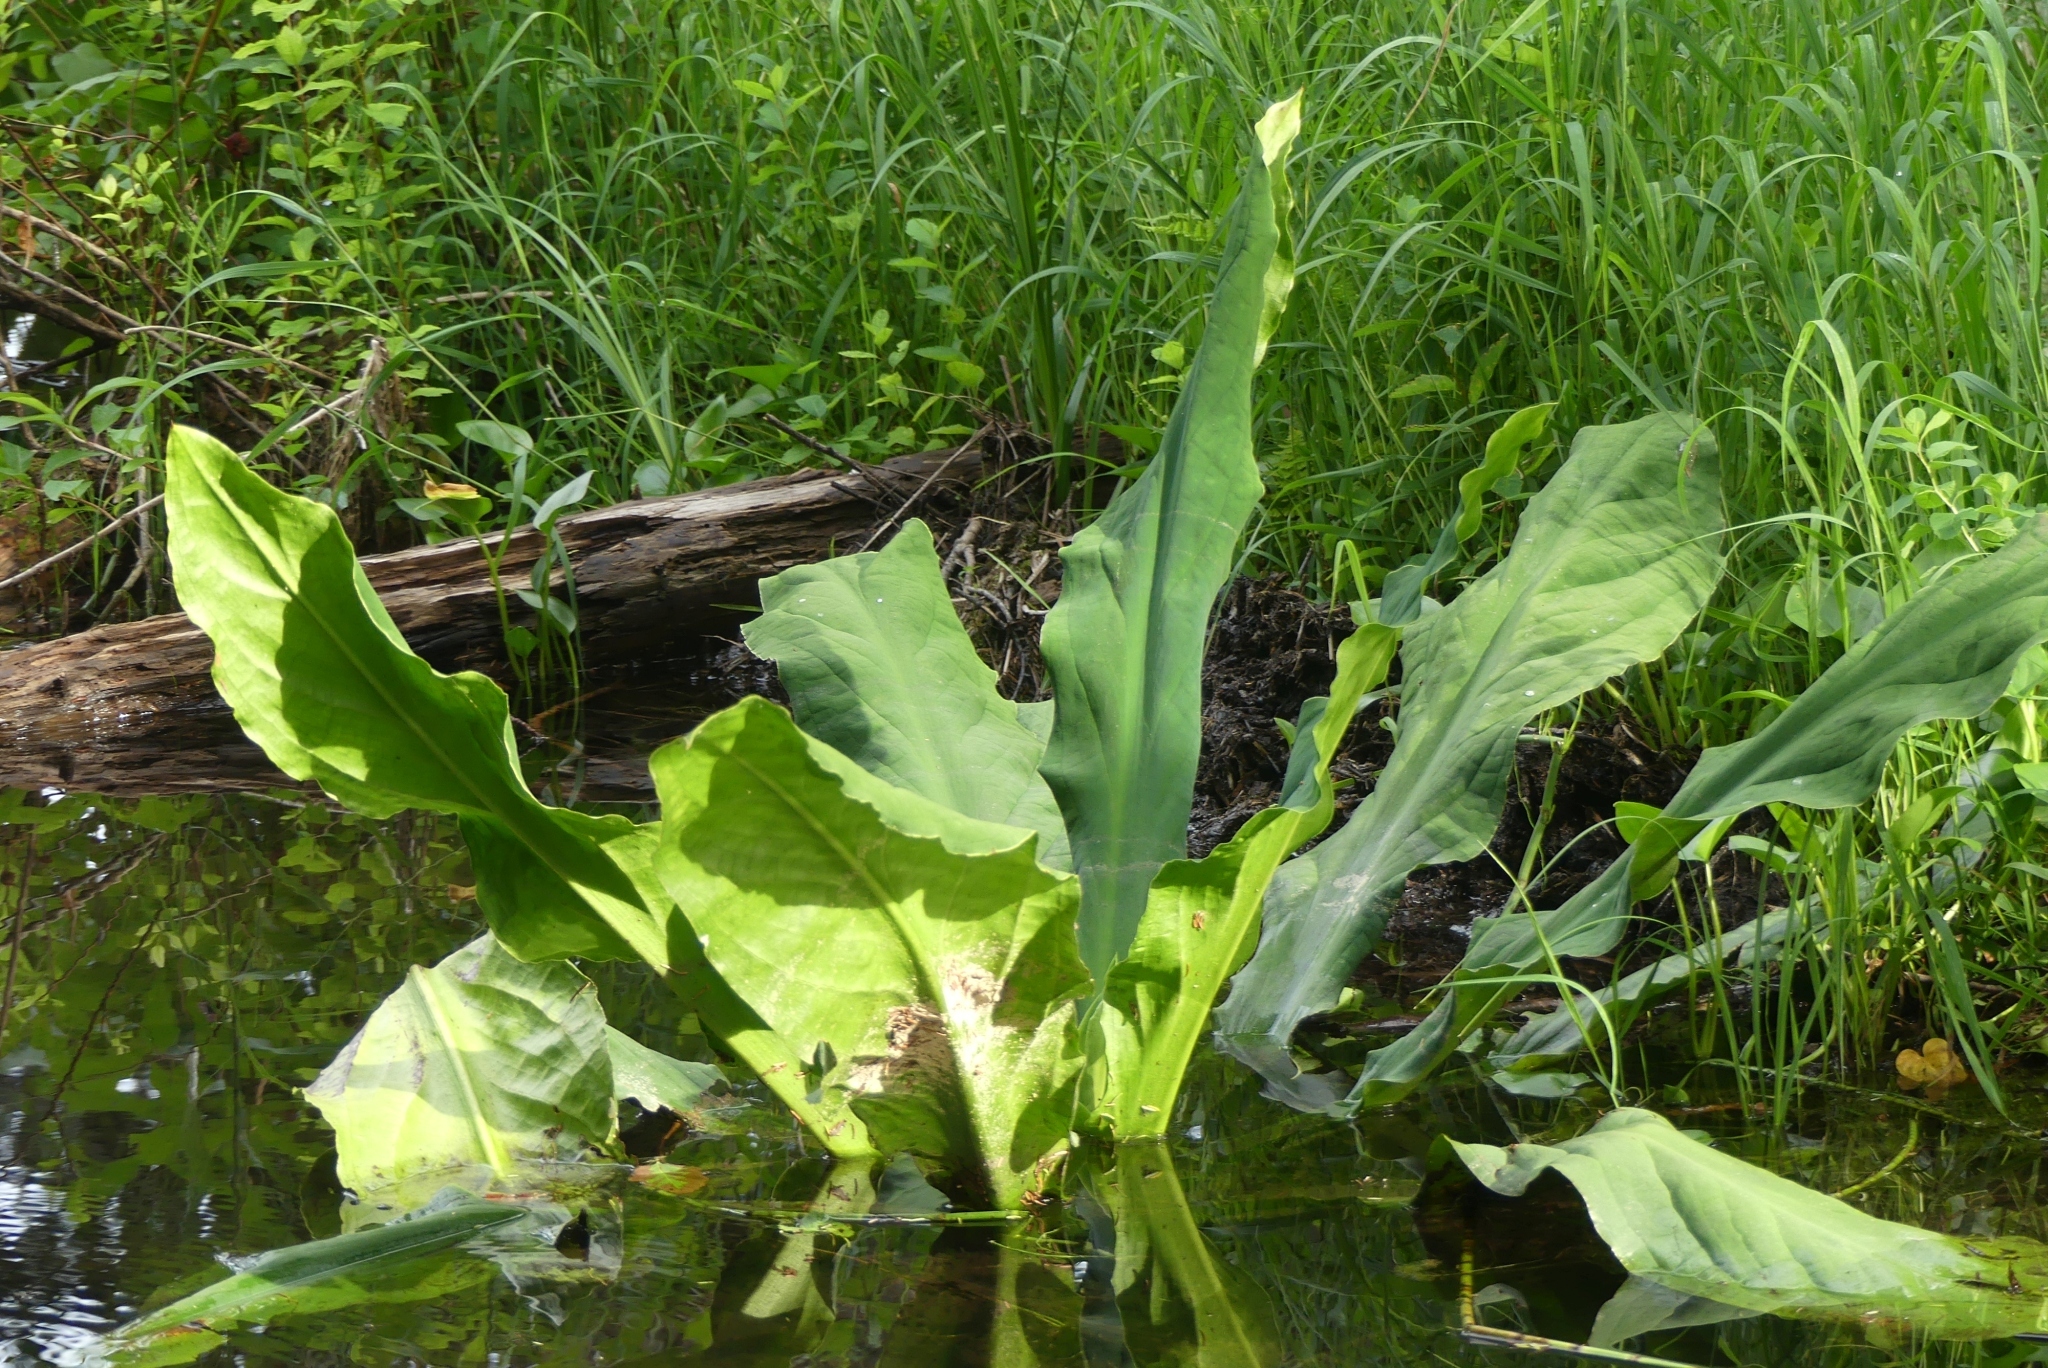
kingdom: Plantae
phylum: Tracheophyta
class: Liliopsida
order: Alismatales
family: Araceae
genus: Lysichiton
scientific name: Lysichiton americanus
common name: American skunk cabbage
